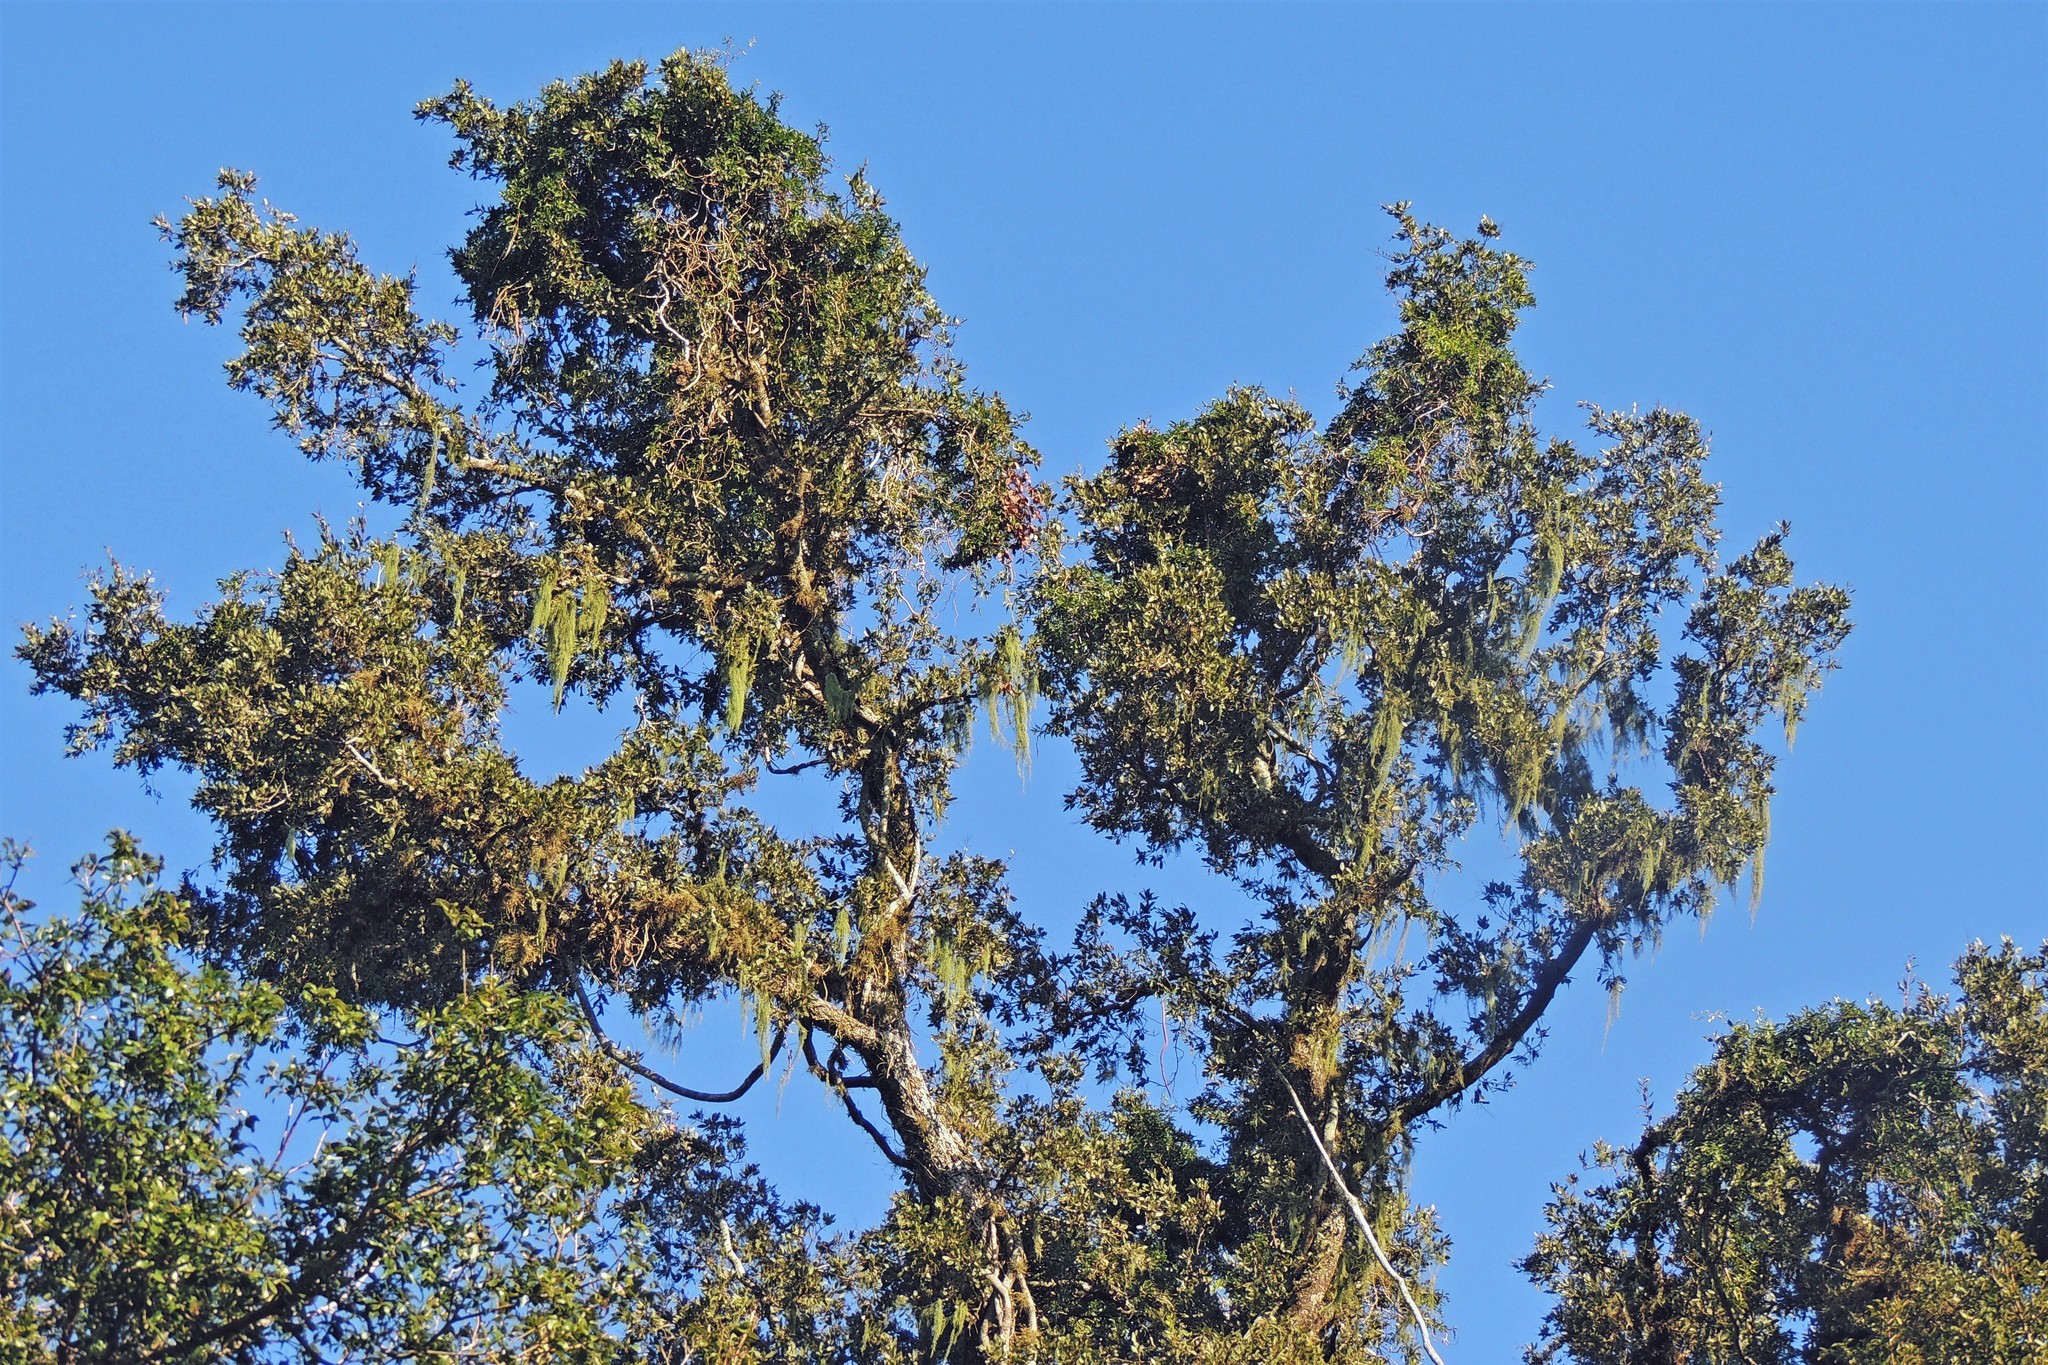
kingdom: Plantae
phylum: Tracheophyta
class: Magnoliopsida
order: Sapindales
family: Anacardiaceae
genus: Schinopsis
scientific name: Schinopsis balansae
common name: Red quebracho
